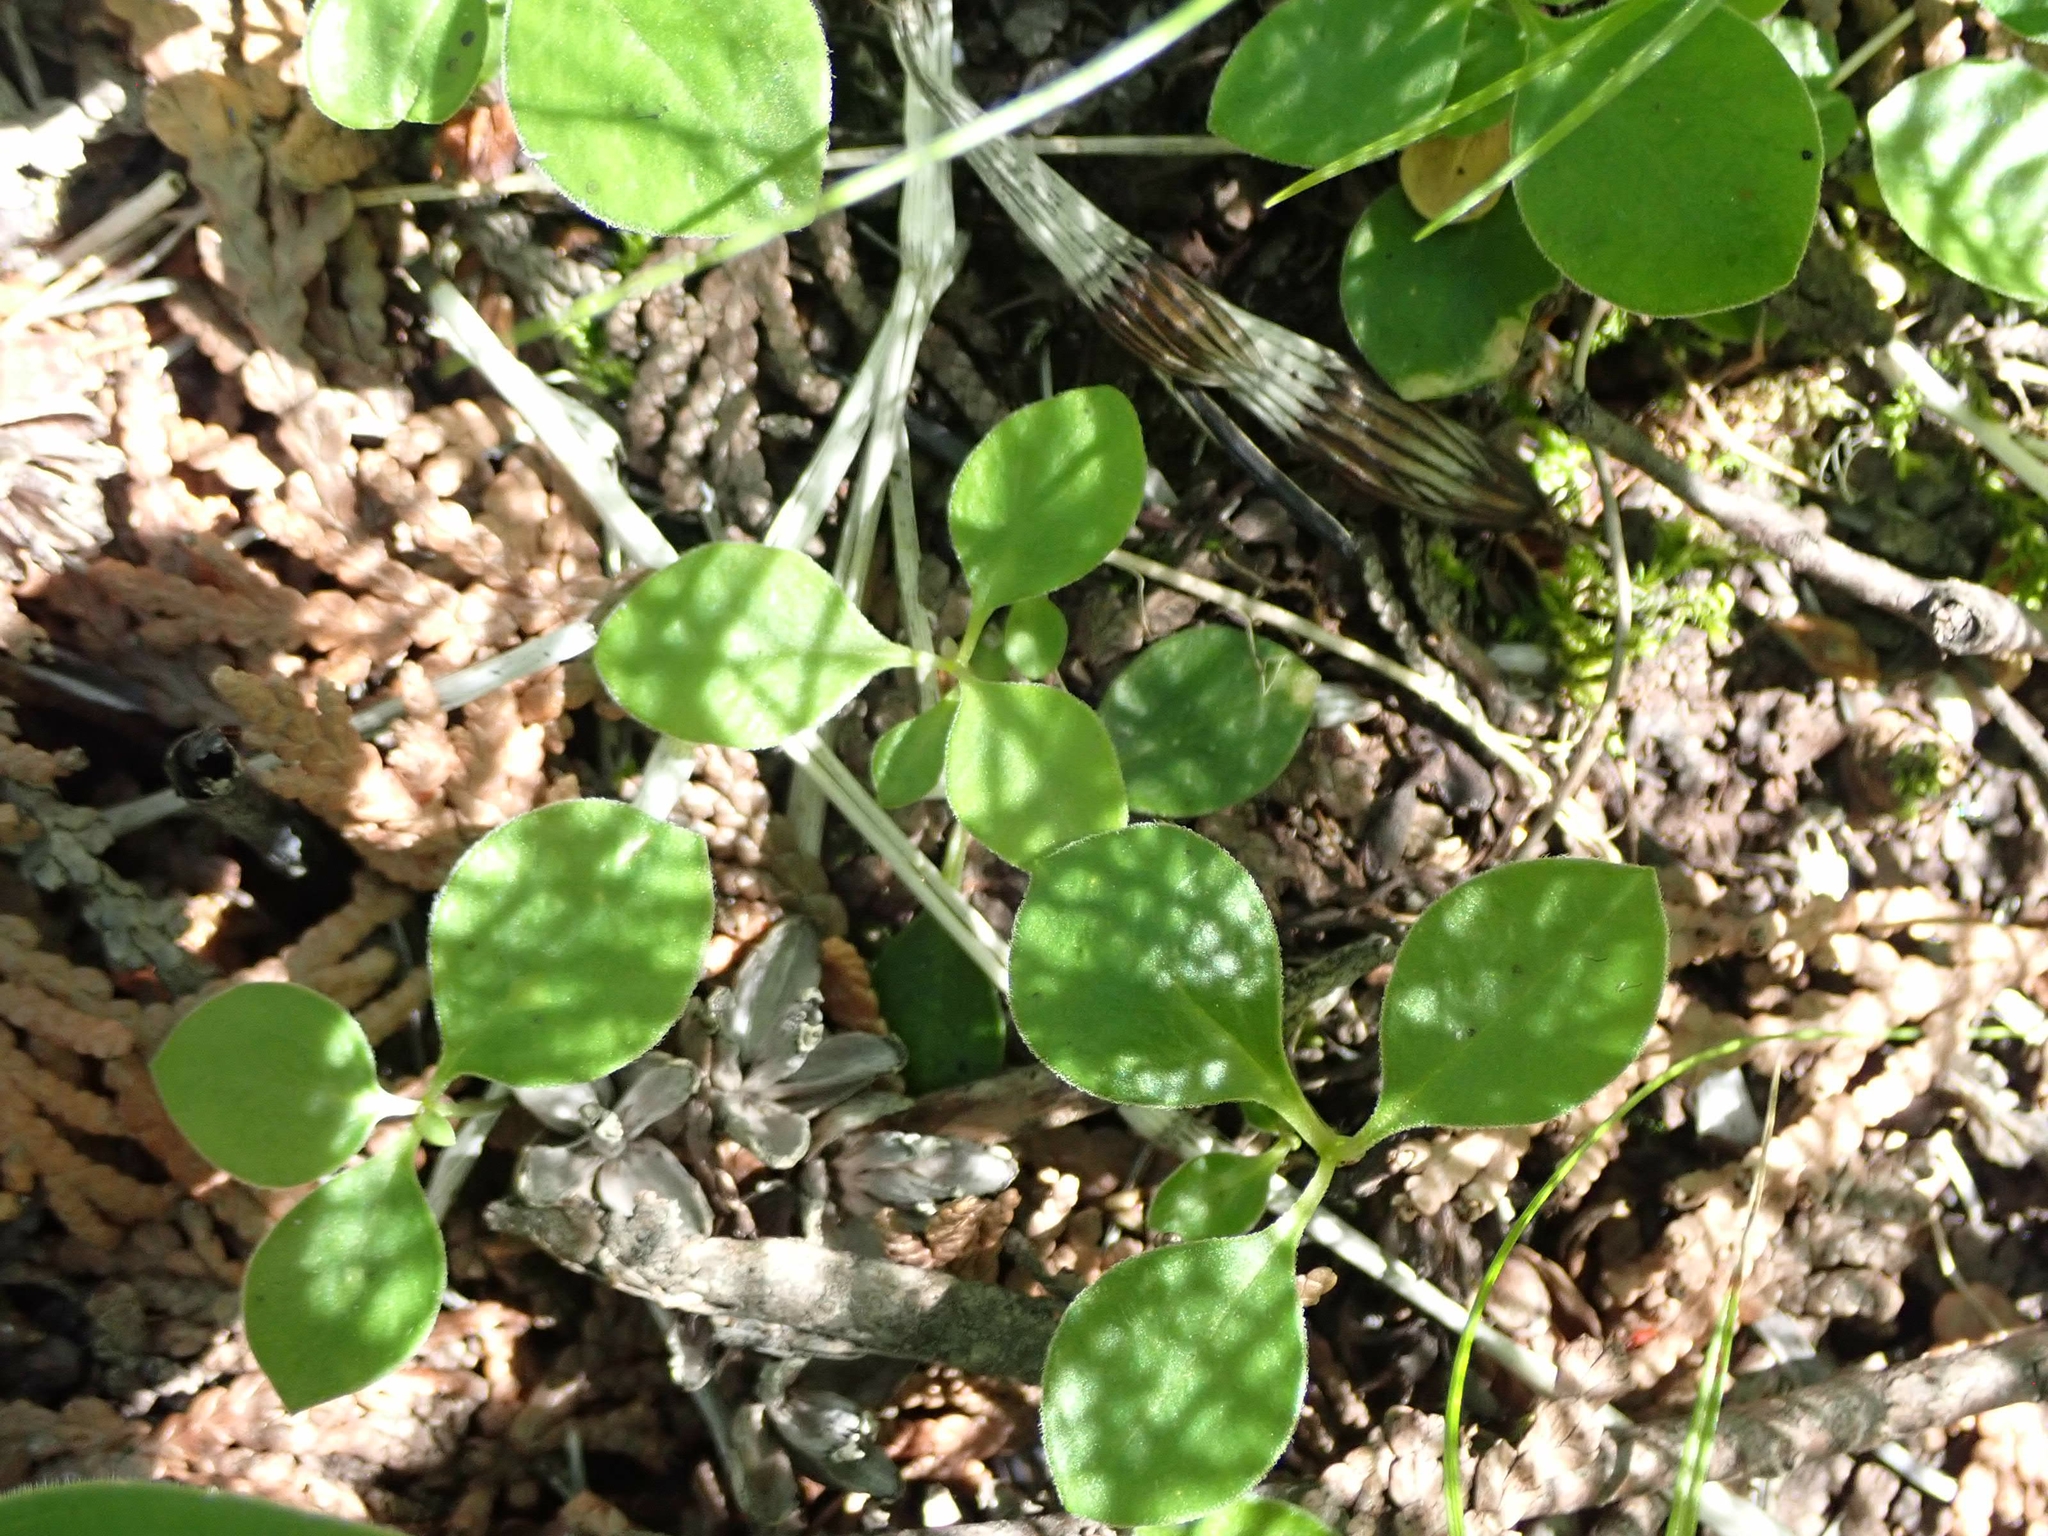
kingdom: Plantae
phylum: Tracheophyta
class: Magnoliopsida
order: Fabales
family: Polygalaceae
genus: Polygaloides
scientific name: Polygaloides paucifolia
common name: Bird-on-the-wing
